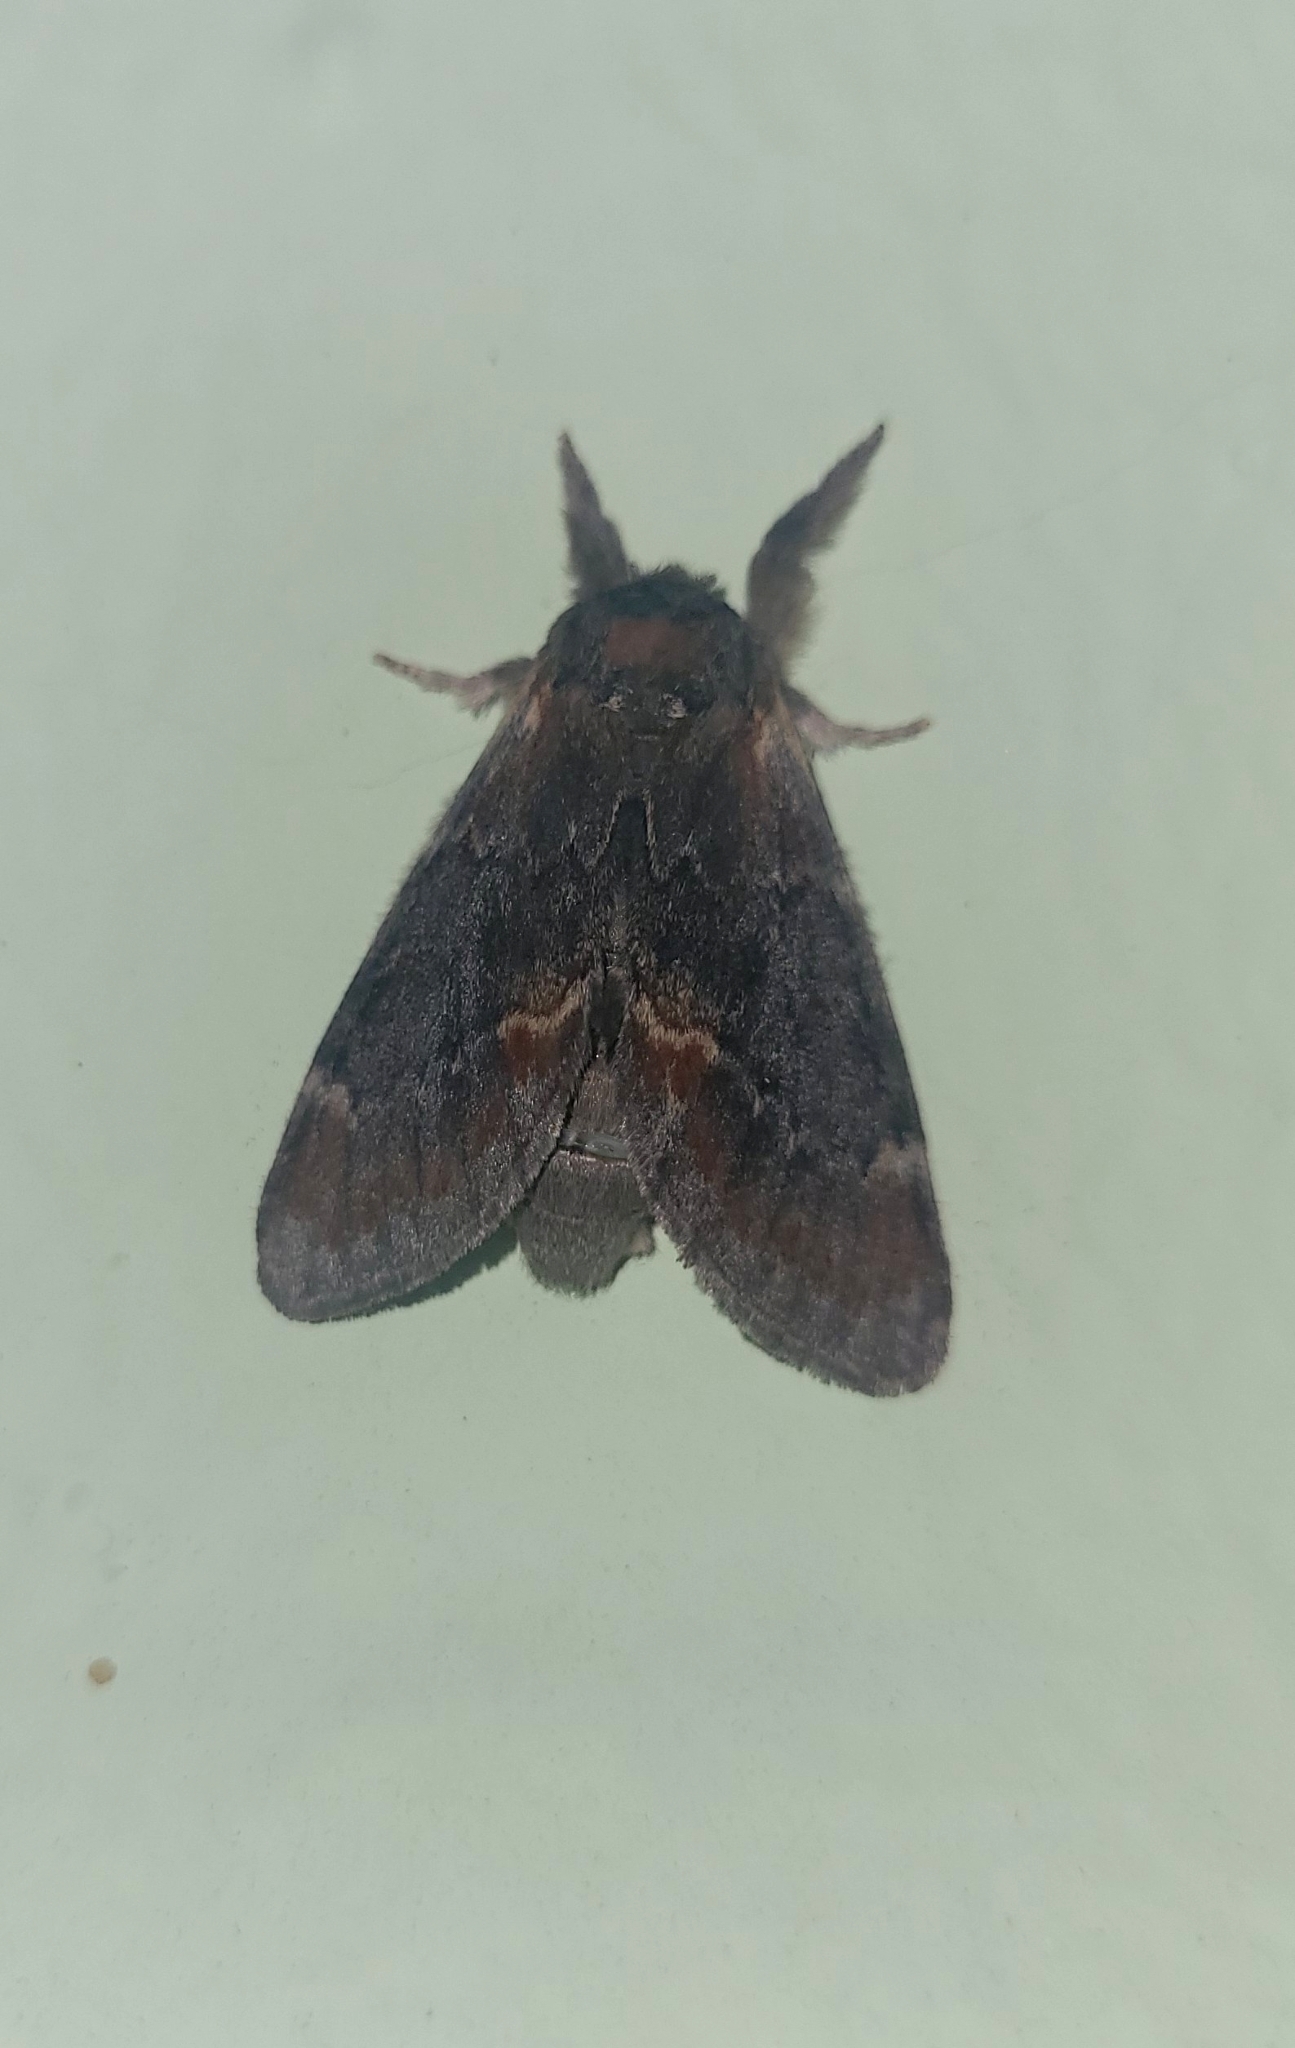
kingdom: Animalia
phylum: Arthropoda
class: Insecta
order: Lepidoptera
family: Notodontidae
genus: Notodonta
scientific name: Notodonta dromedarius
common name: Iron prominent
